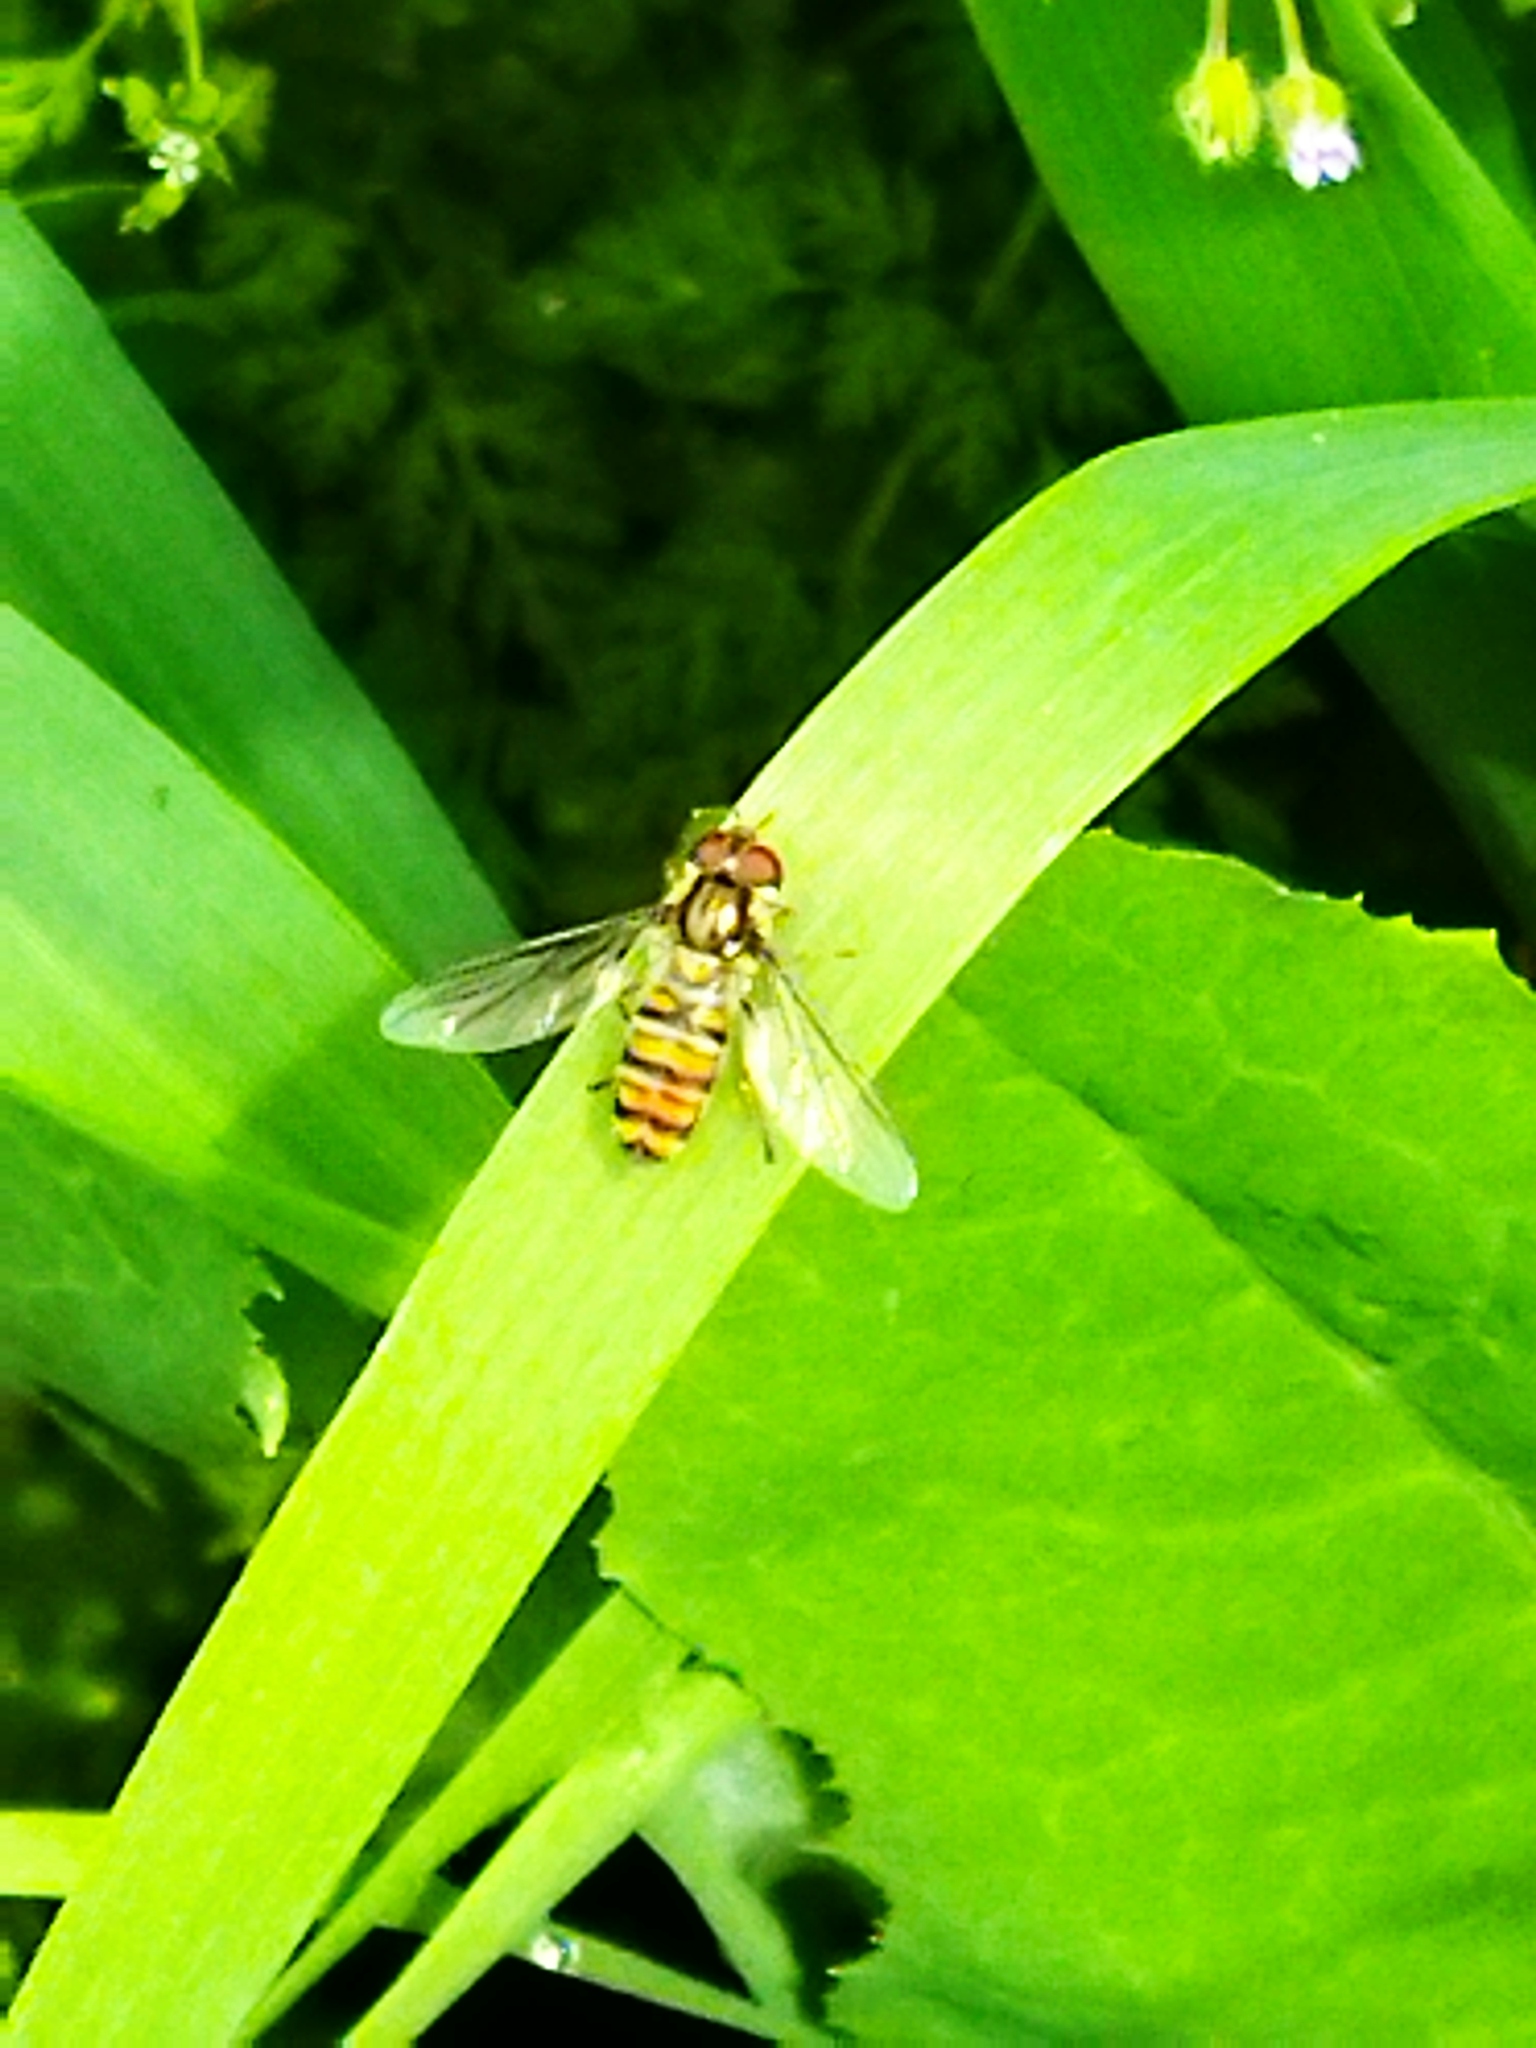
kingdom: Animalia
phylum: Arthropoda
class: Insecta
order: Diptera
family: Syrphidae
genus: Episyrphus
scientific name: Episyrphus balteatus
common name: Marmalade hoverfly
